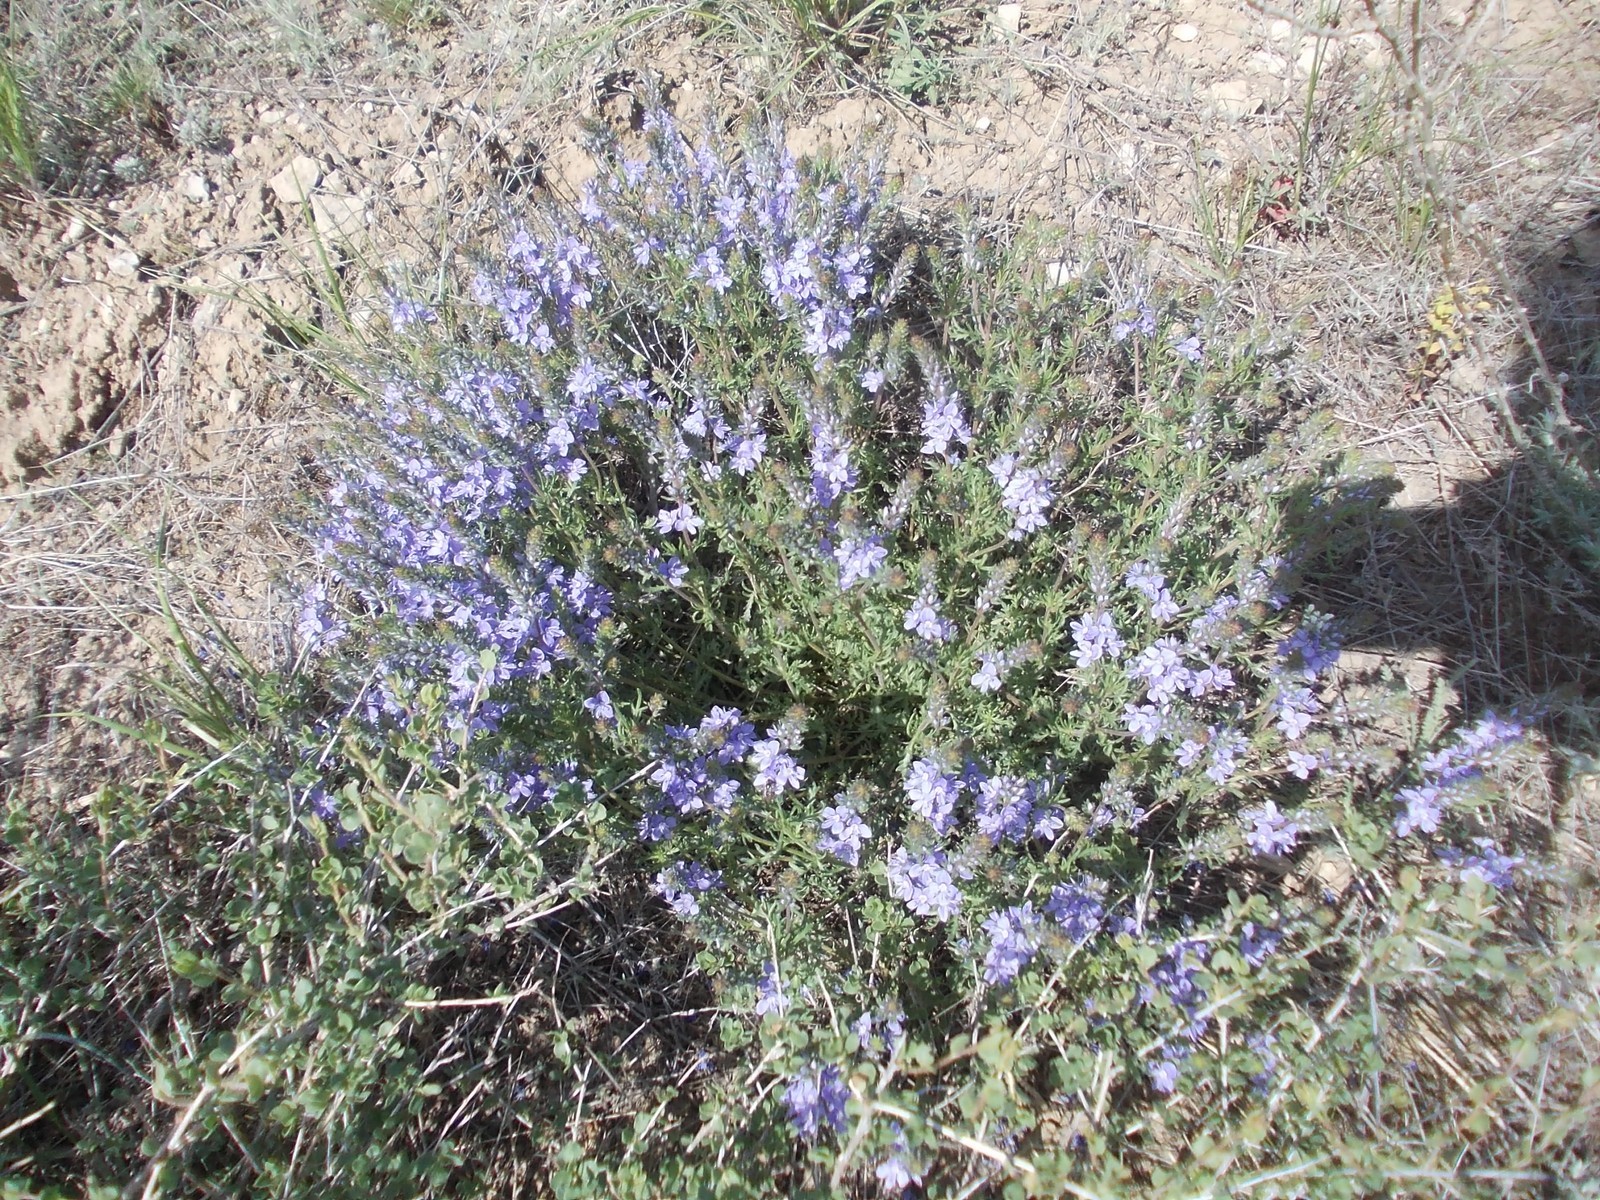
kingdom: Plantae
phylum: Tracheophyta
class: Magnoliopsida
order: Lamiales
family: Plantaginaceae
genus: Veronica
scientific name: Veronica multifida
